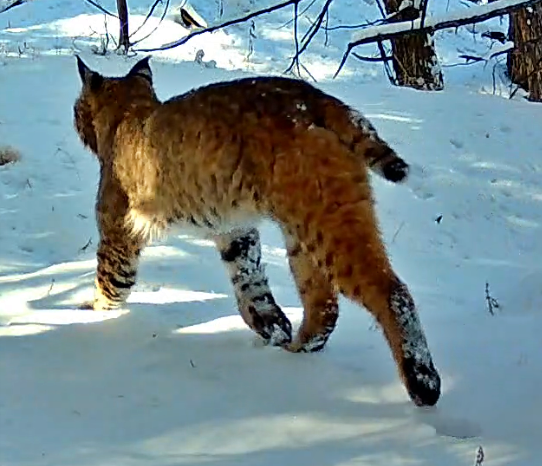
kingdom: Animalia
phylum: Chordata
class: Mammalia
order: Carnivora
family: Felidae
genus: Lynx
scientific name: Lynx rufus
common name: Bobcat
